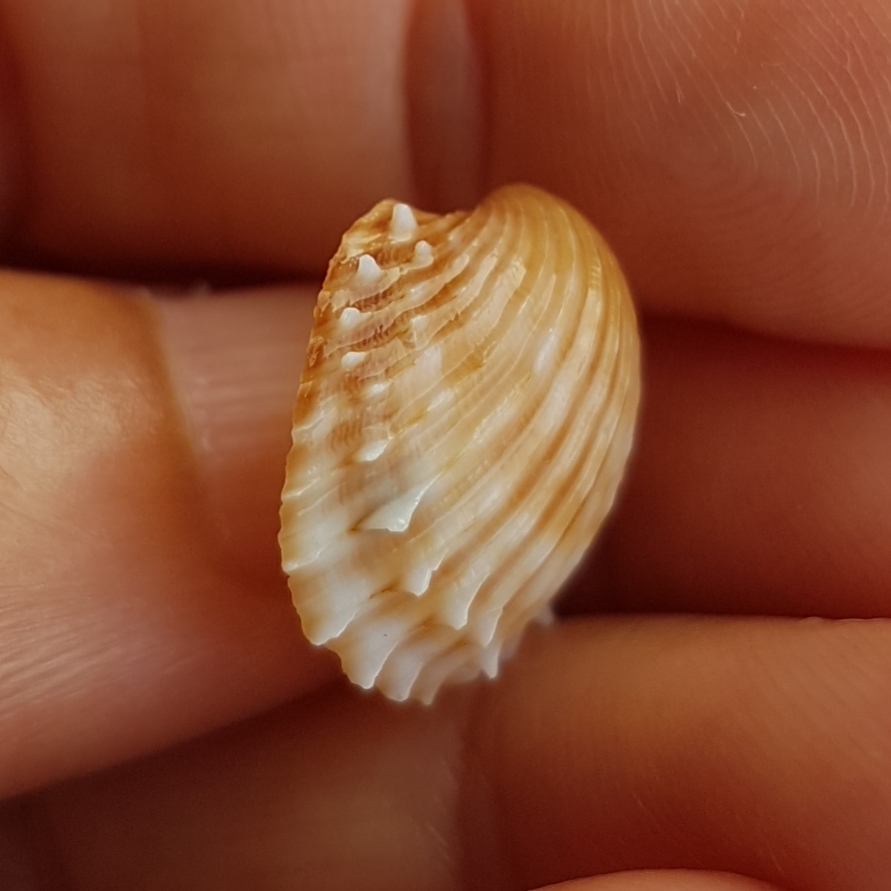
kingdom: Animalia
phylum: Mollusca
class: Bivalvia
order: Cardiida
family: Cardiidae
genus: Acanthocardia
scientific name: Acanthocardia aculeata
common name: Spiny cockle
